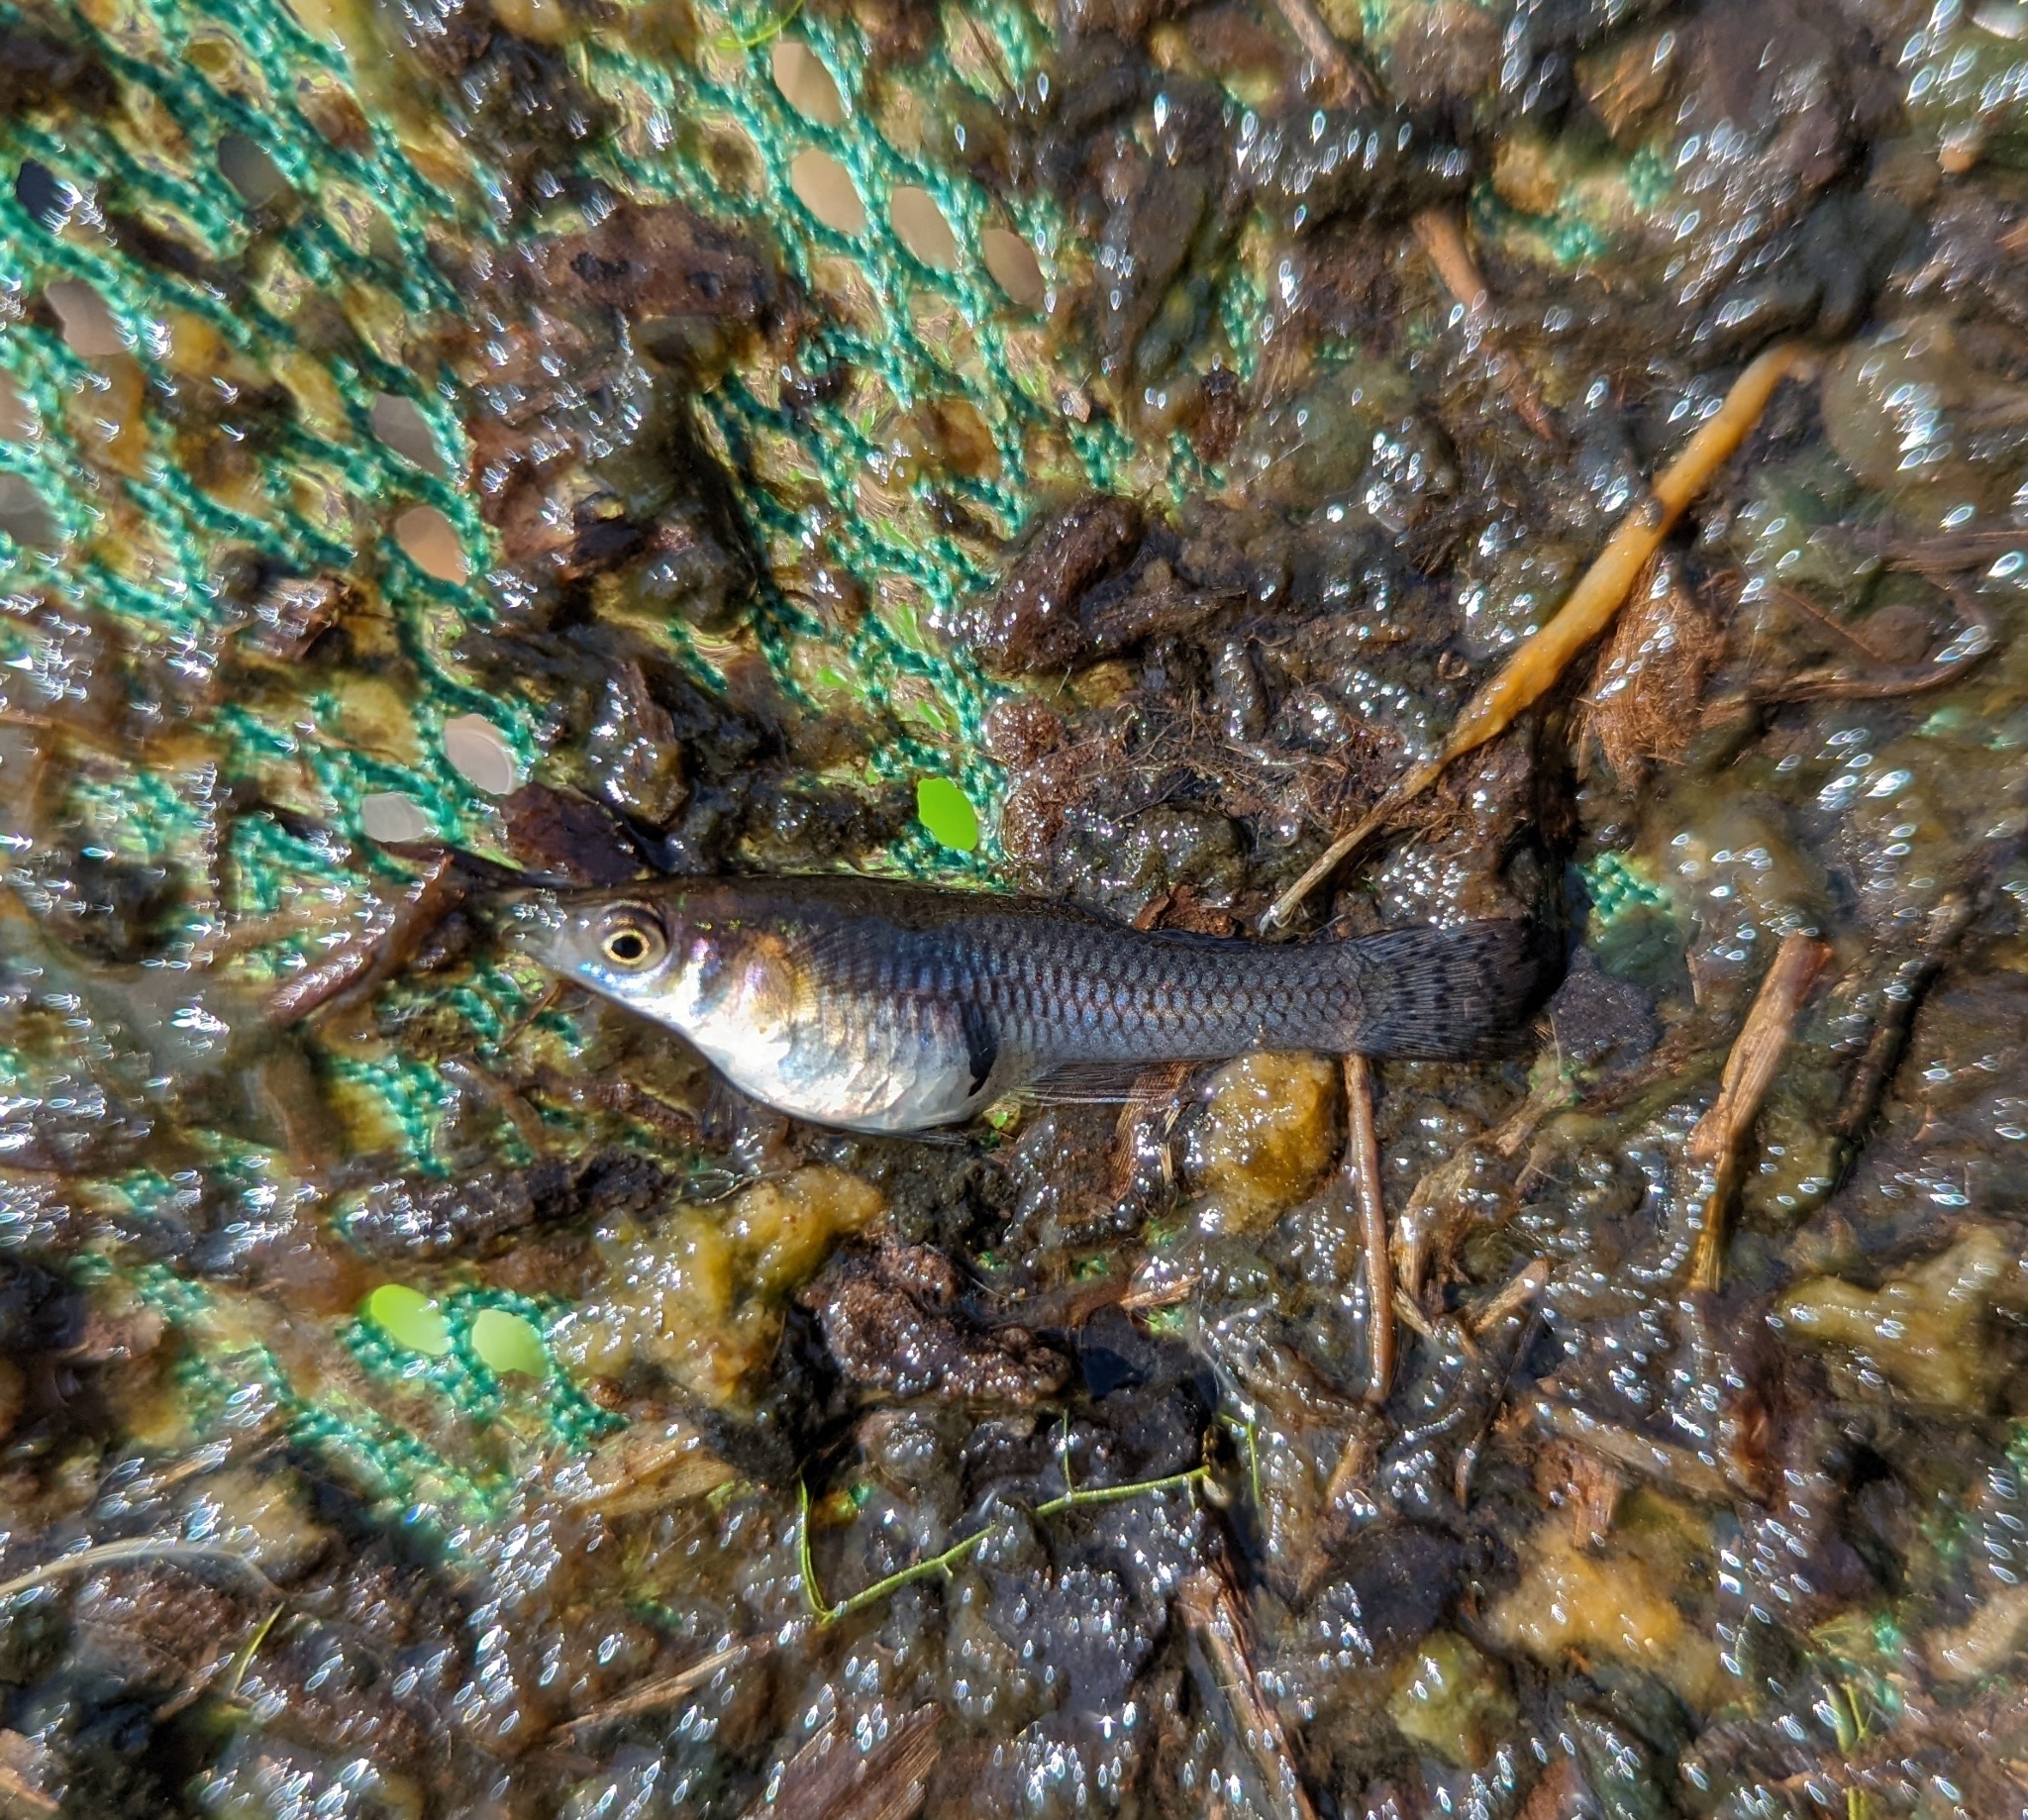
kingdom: Animalia
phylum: Chordata
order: Cyprinodontiformes
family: Poeciliidae
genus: Gambusia
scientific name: Gambusia holbrooki
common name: Eastern mosquitofish
